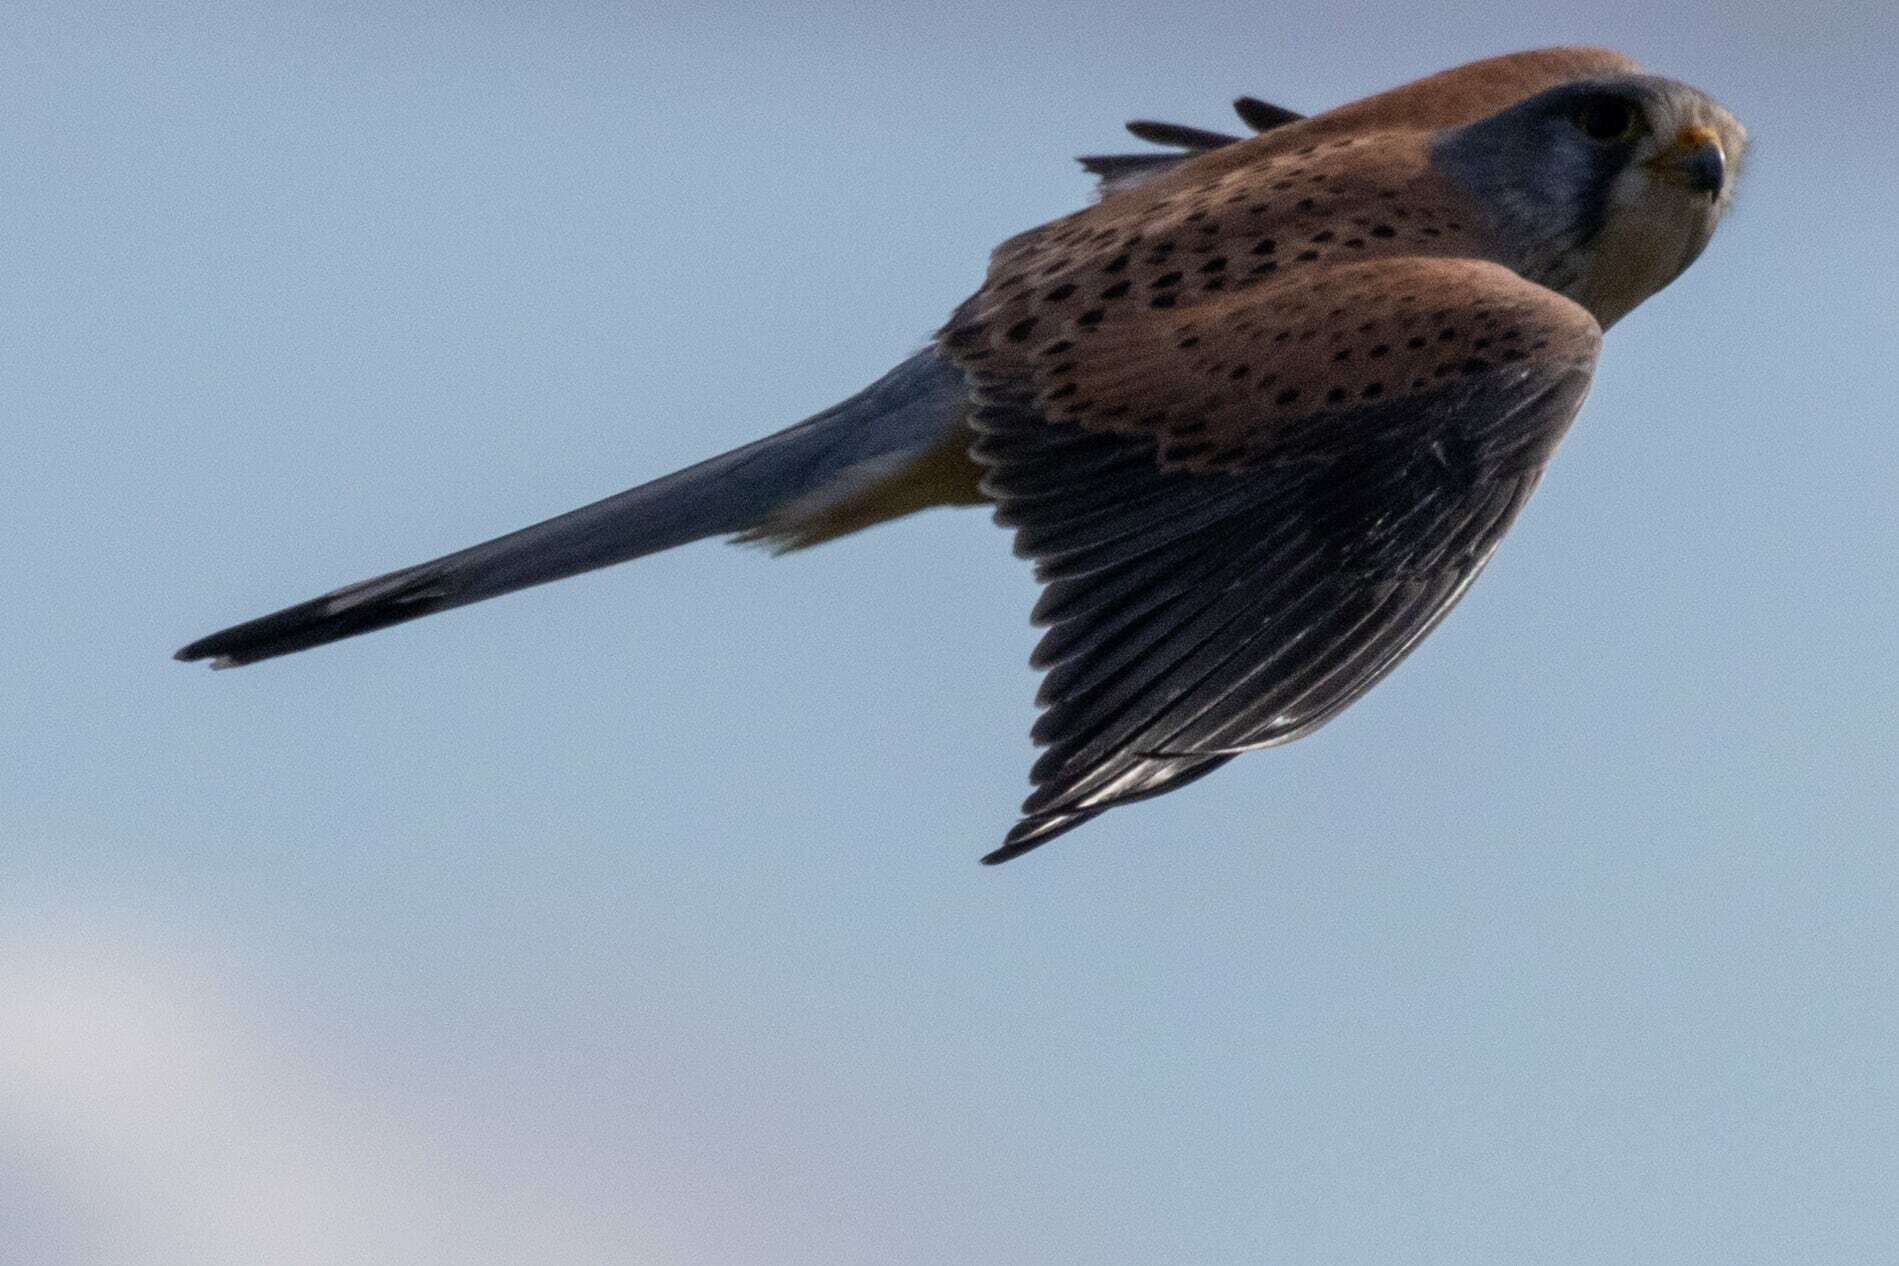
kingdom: Animalia
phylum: Chordata
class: Aves
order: Falconiformes
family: Falconidae
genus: Falco
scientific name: Falco tinnunculus
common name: Common kestrel
